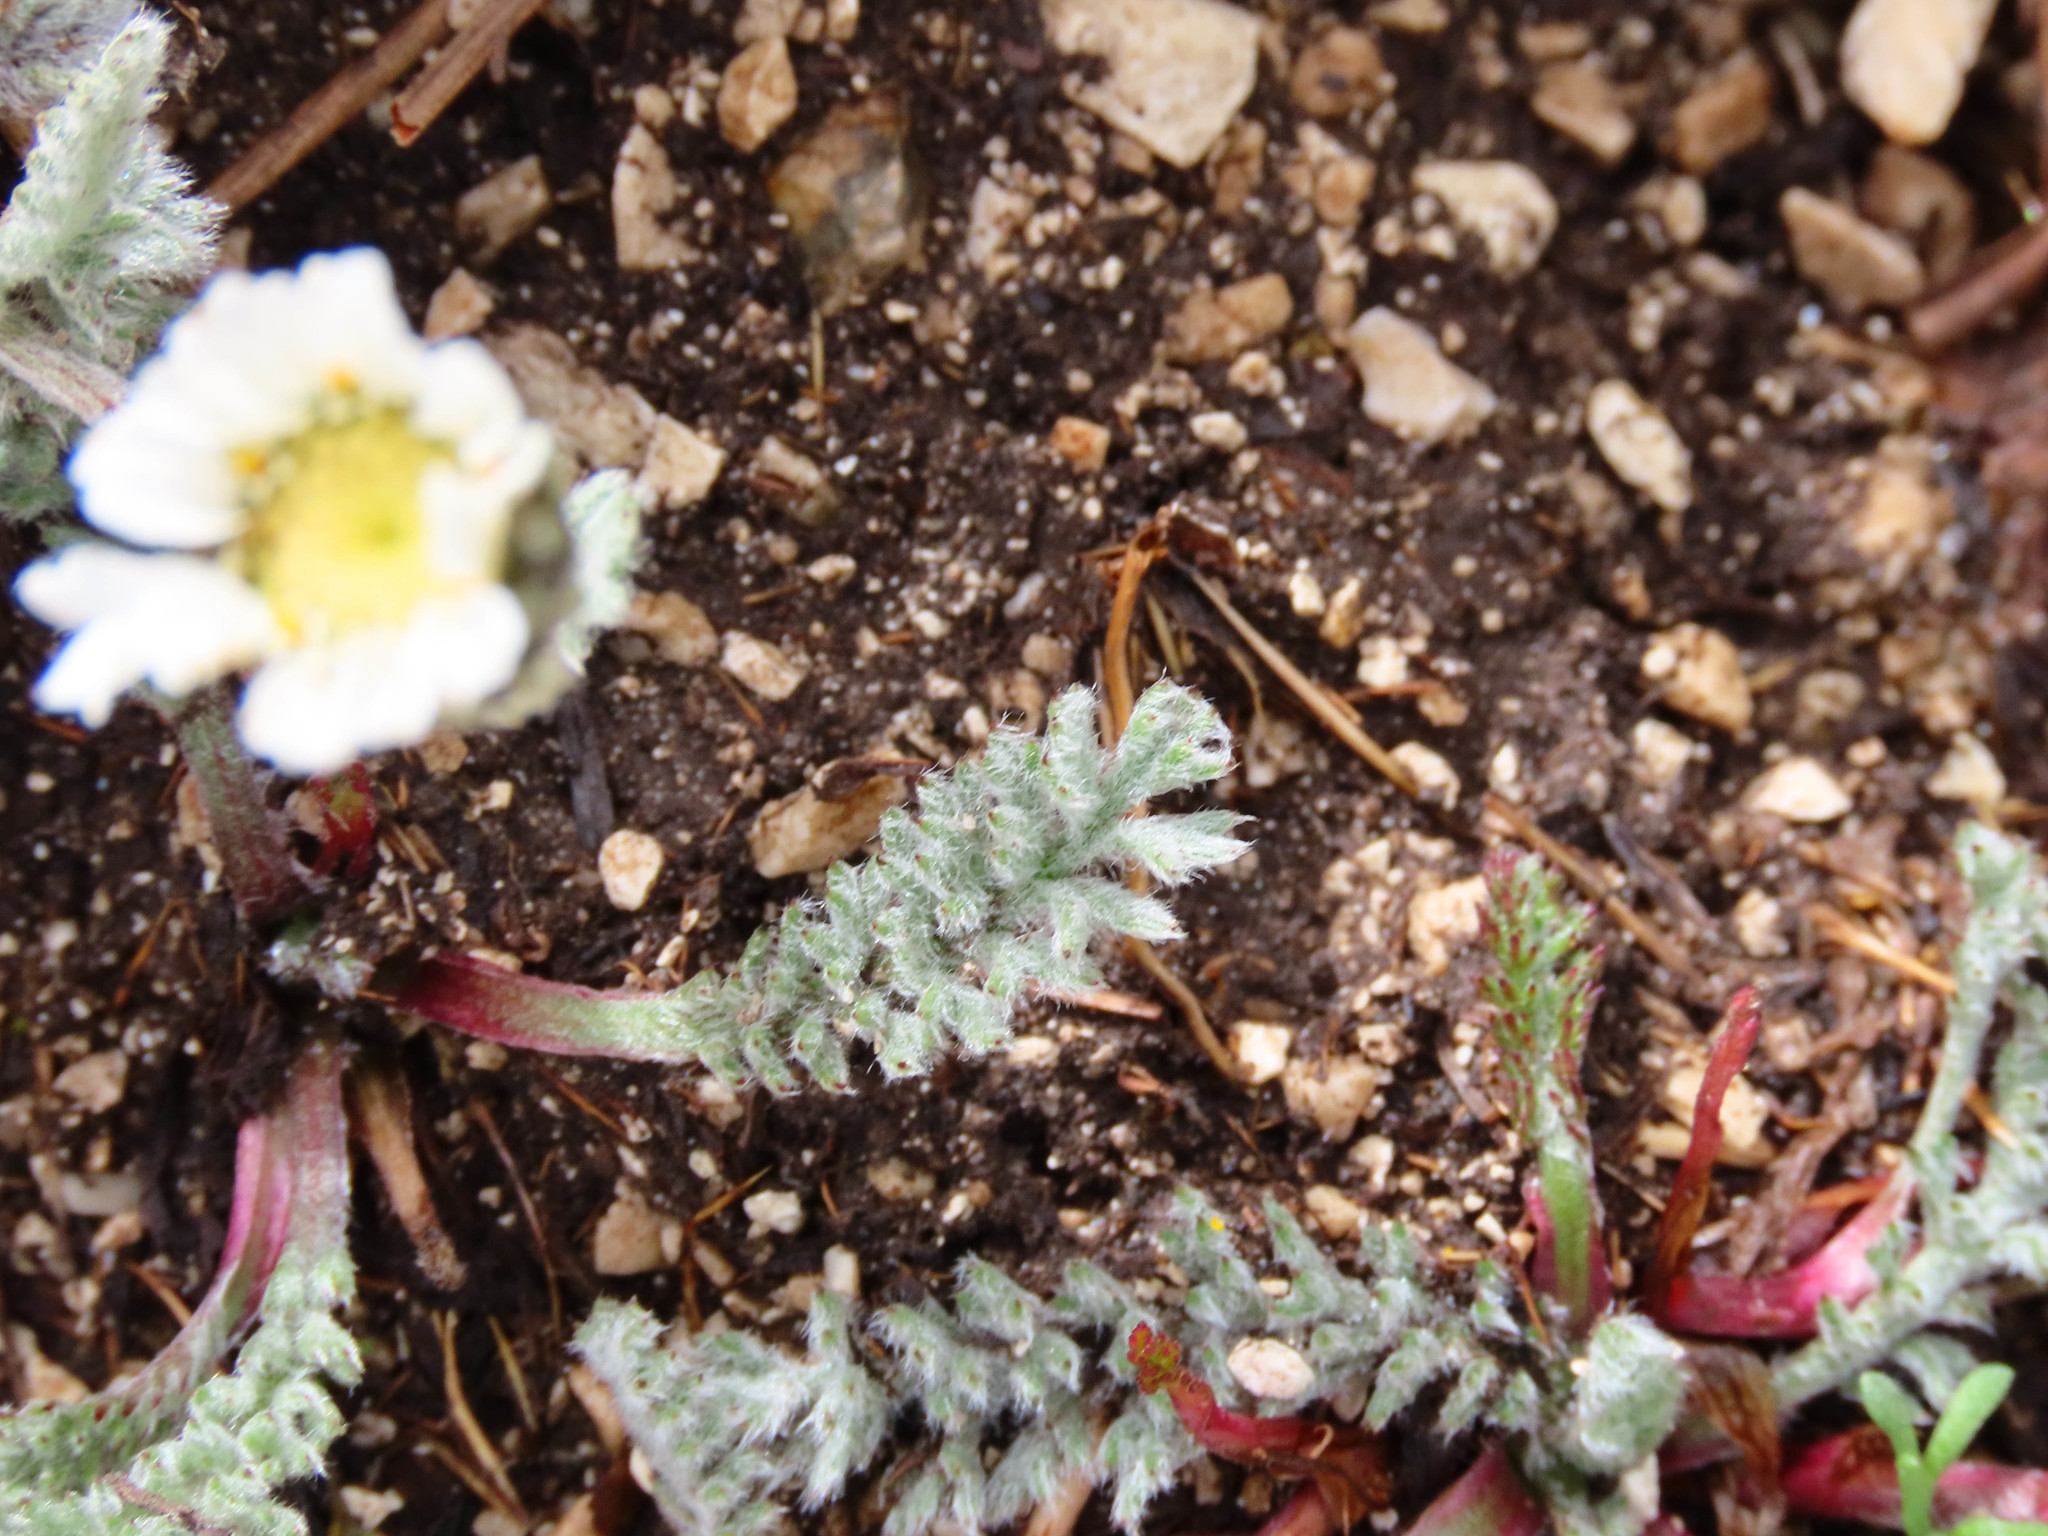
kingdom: Plantae
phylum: Tracheophyta
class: Magnoliopsida
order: Asterales
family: Asteraceae
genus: Achillea
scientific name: Achillea barrelieri
